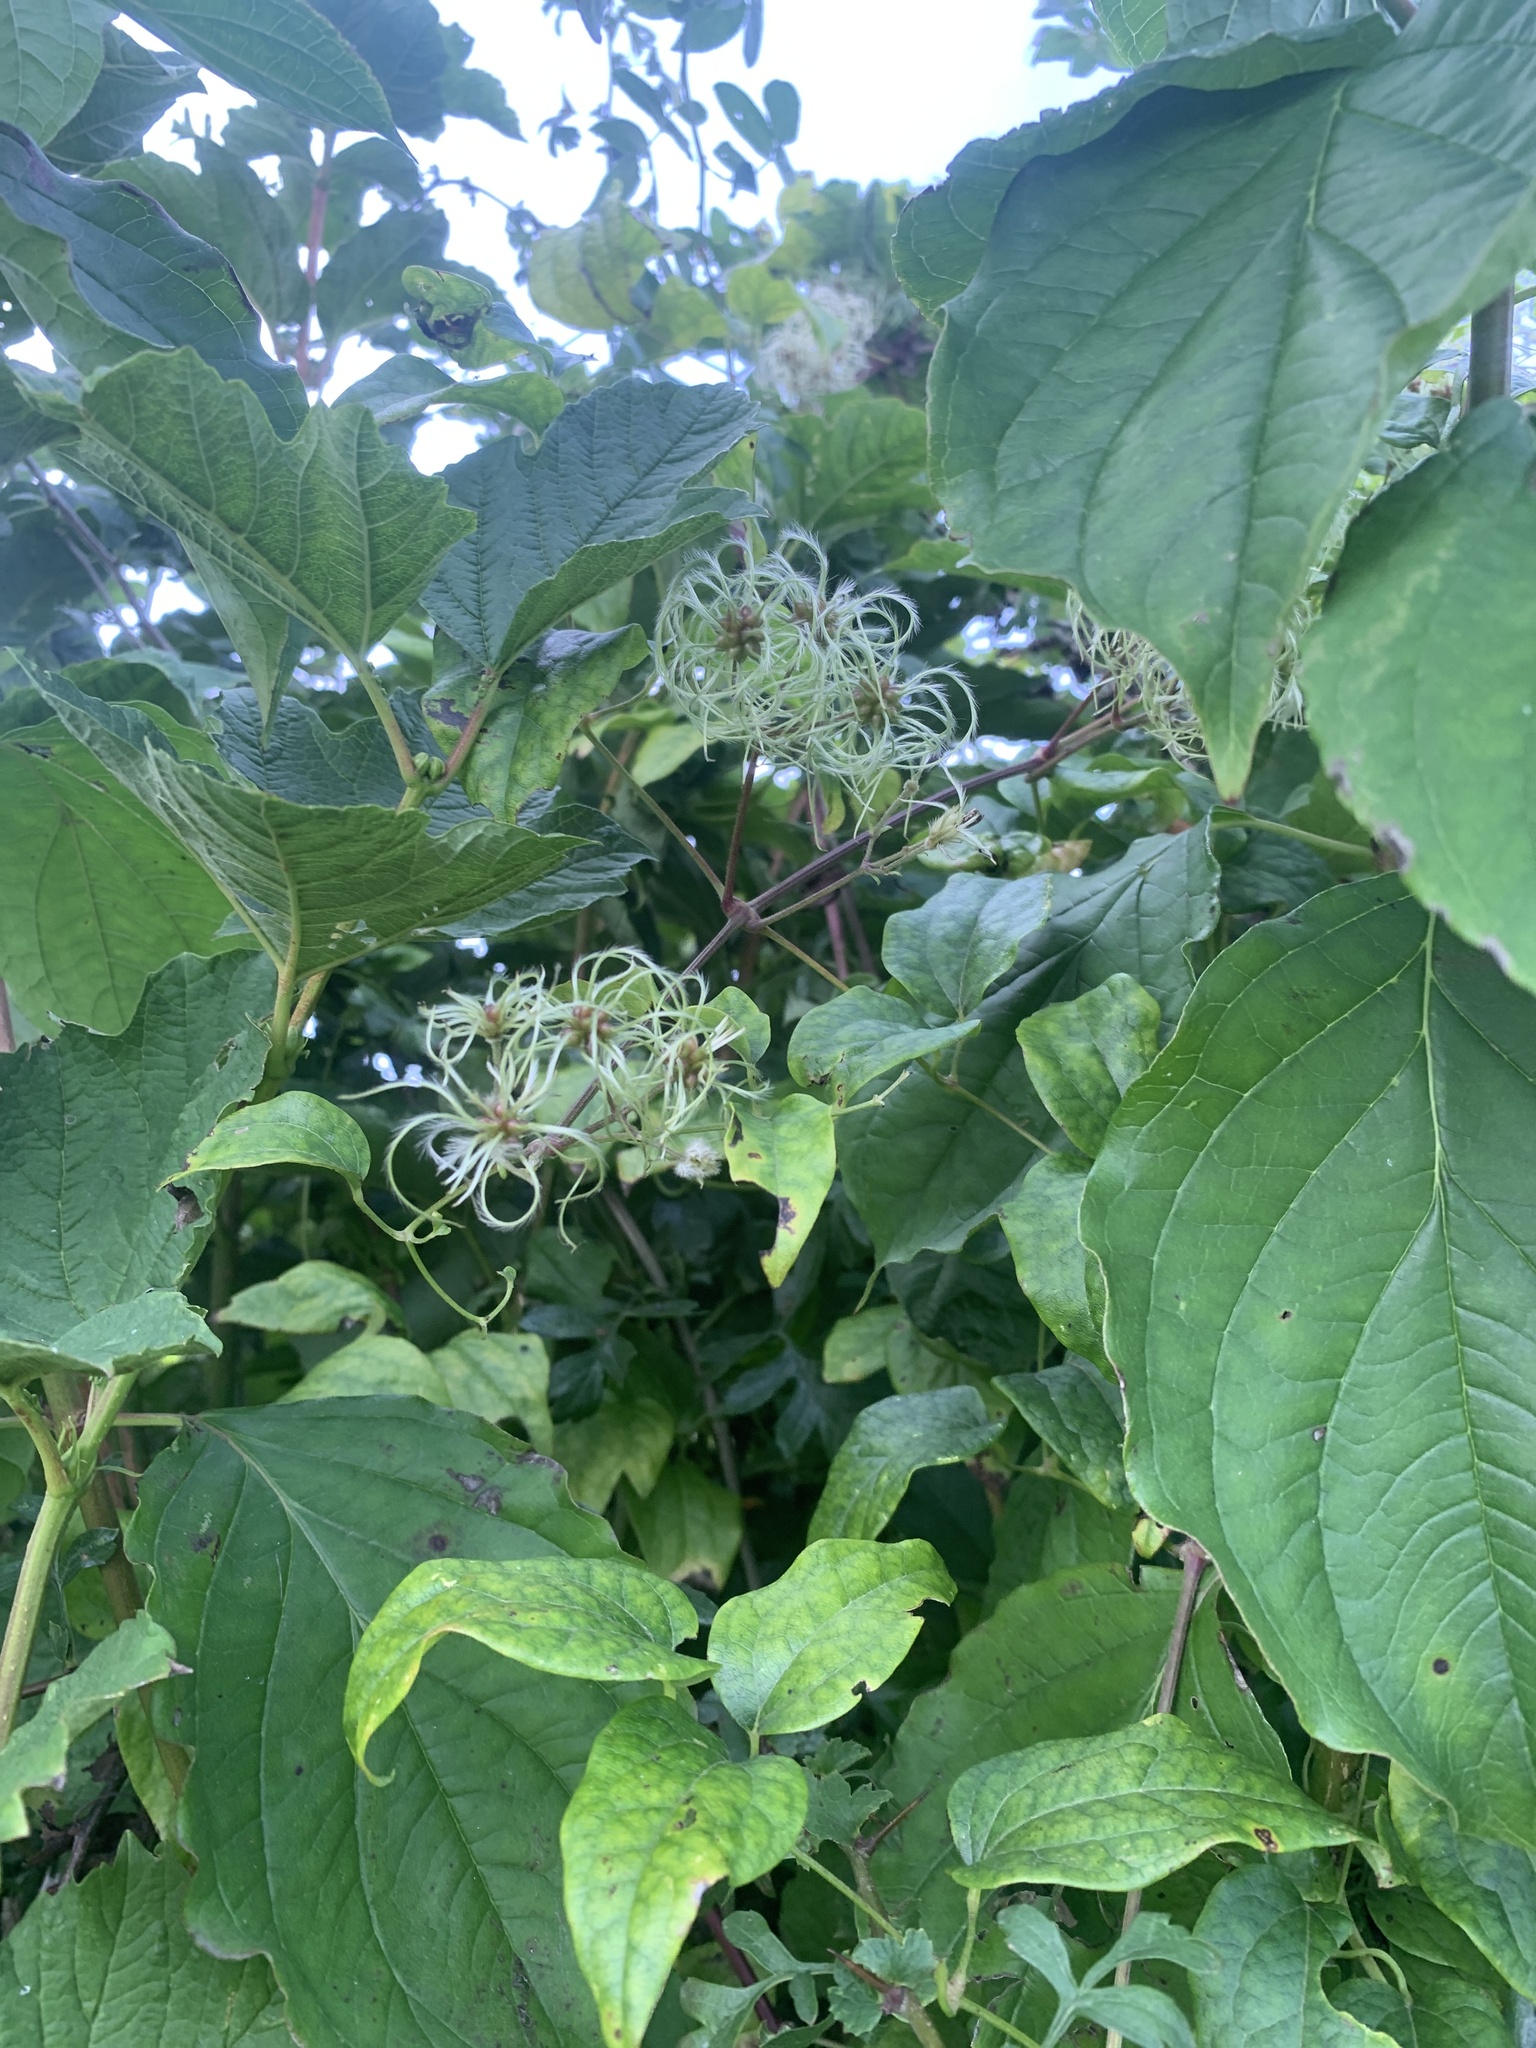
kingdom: Plantae
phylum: Tracheophyta
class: Magnoliopsida
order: Ranunculales
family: Ranunculaceae
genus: Clematis
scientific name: Clematis vitalba
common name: Evergreen clematis
